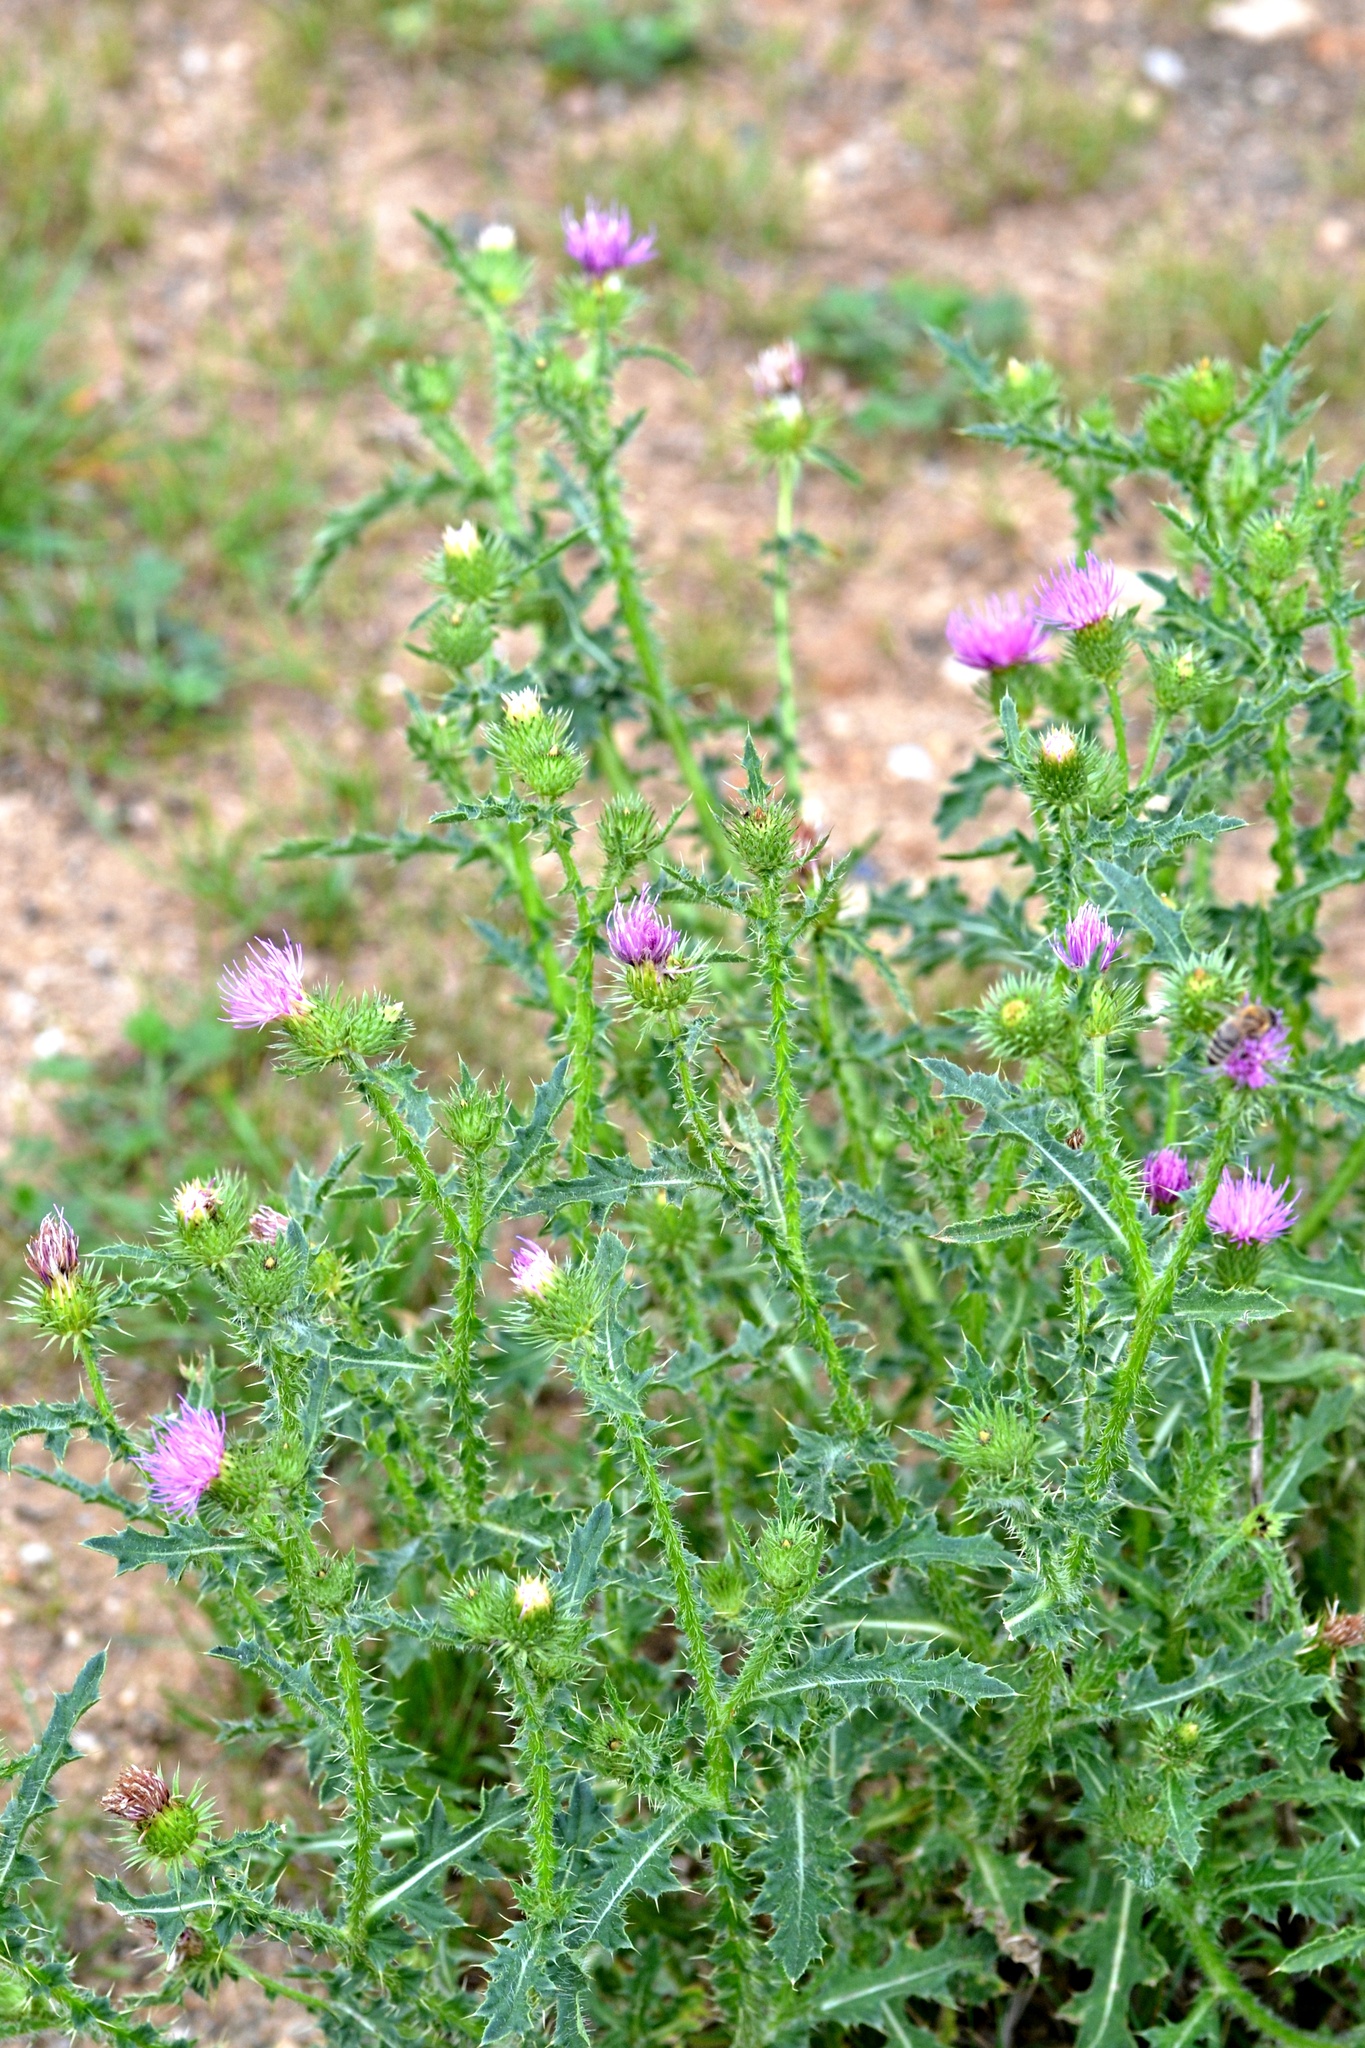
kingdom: Plantae
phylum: Tracheophyta
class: Magnoliopsida
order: Asterales
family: Asteraceae
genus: Carduus
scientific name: Carduus acanthoides
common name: Plumeless thistle
